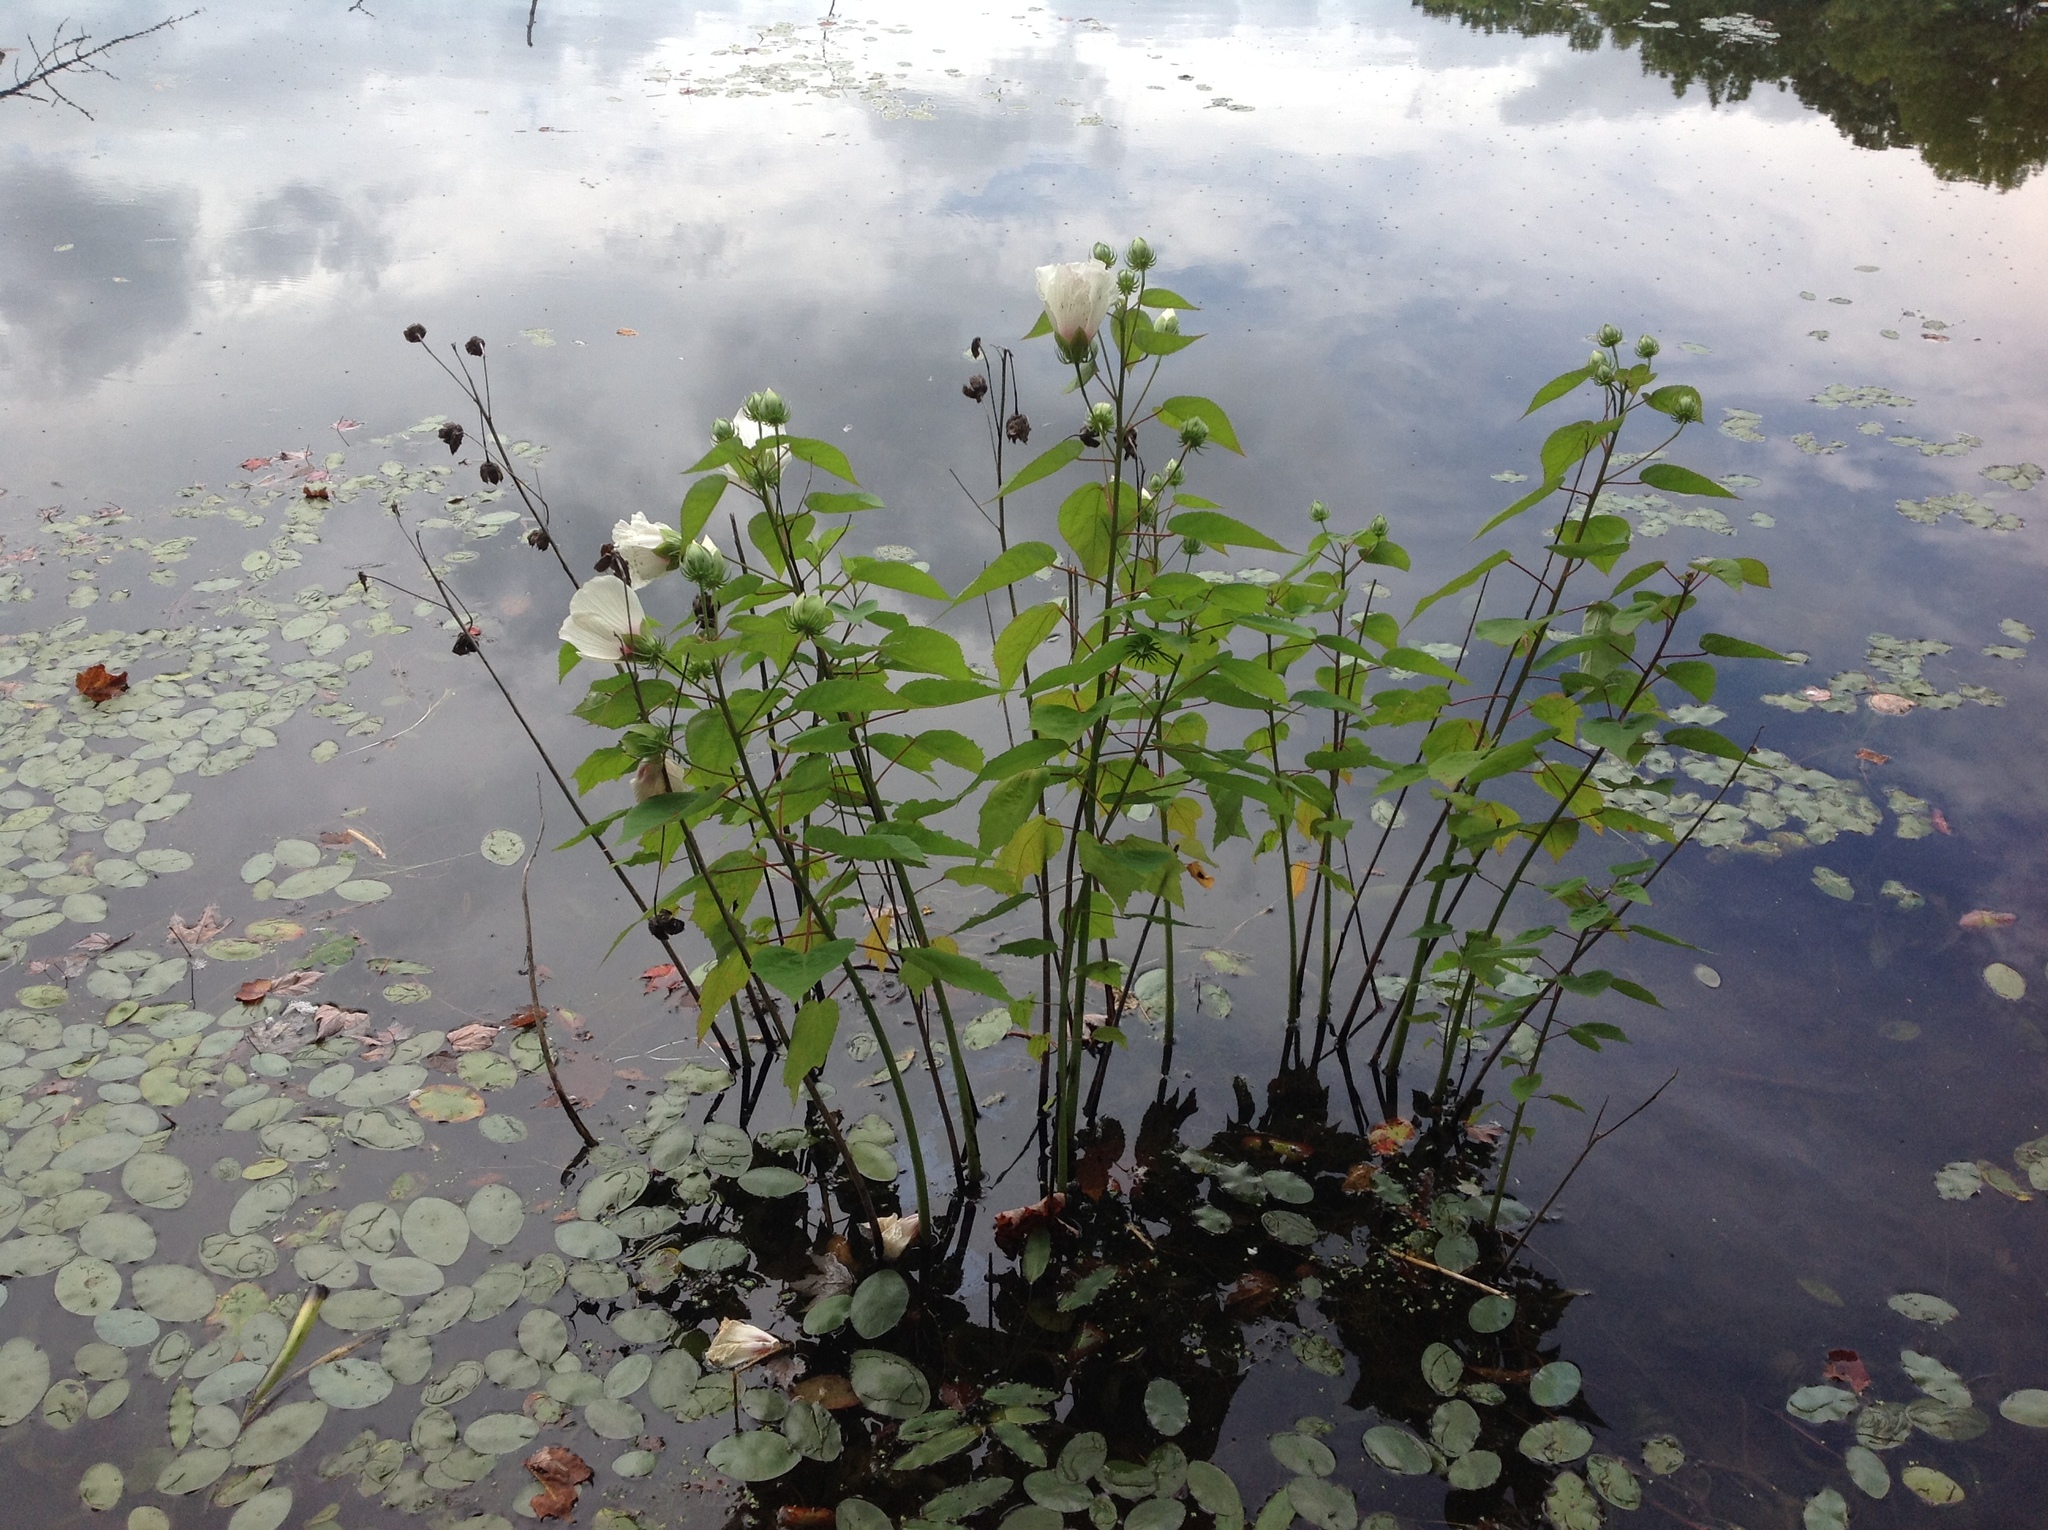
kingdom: Plantae
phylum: Tracheophyta
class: Magnoliopsida
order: Malvales
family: Malvaceae
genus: Hibiscus
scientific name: Hibiscus moscheutos
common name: Common rose-mallow
